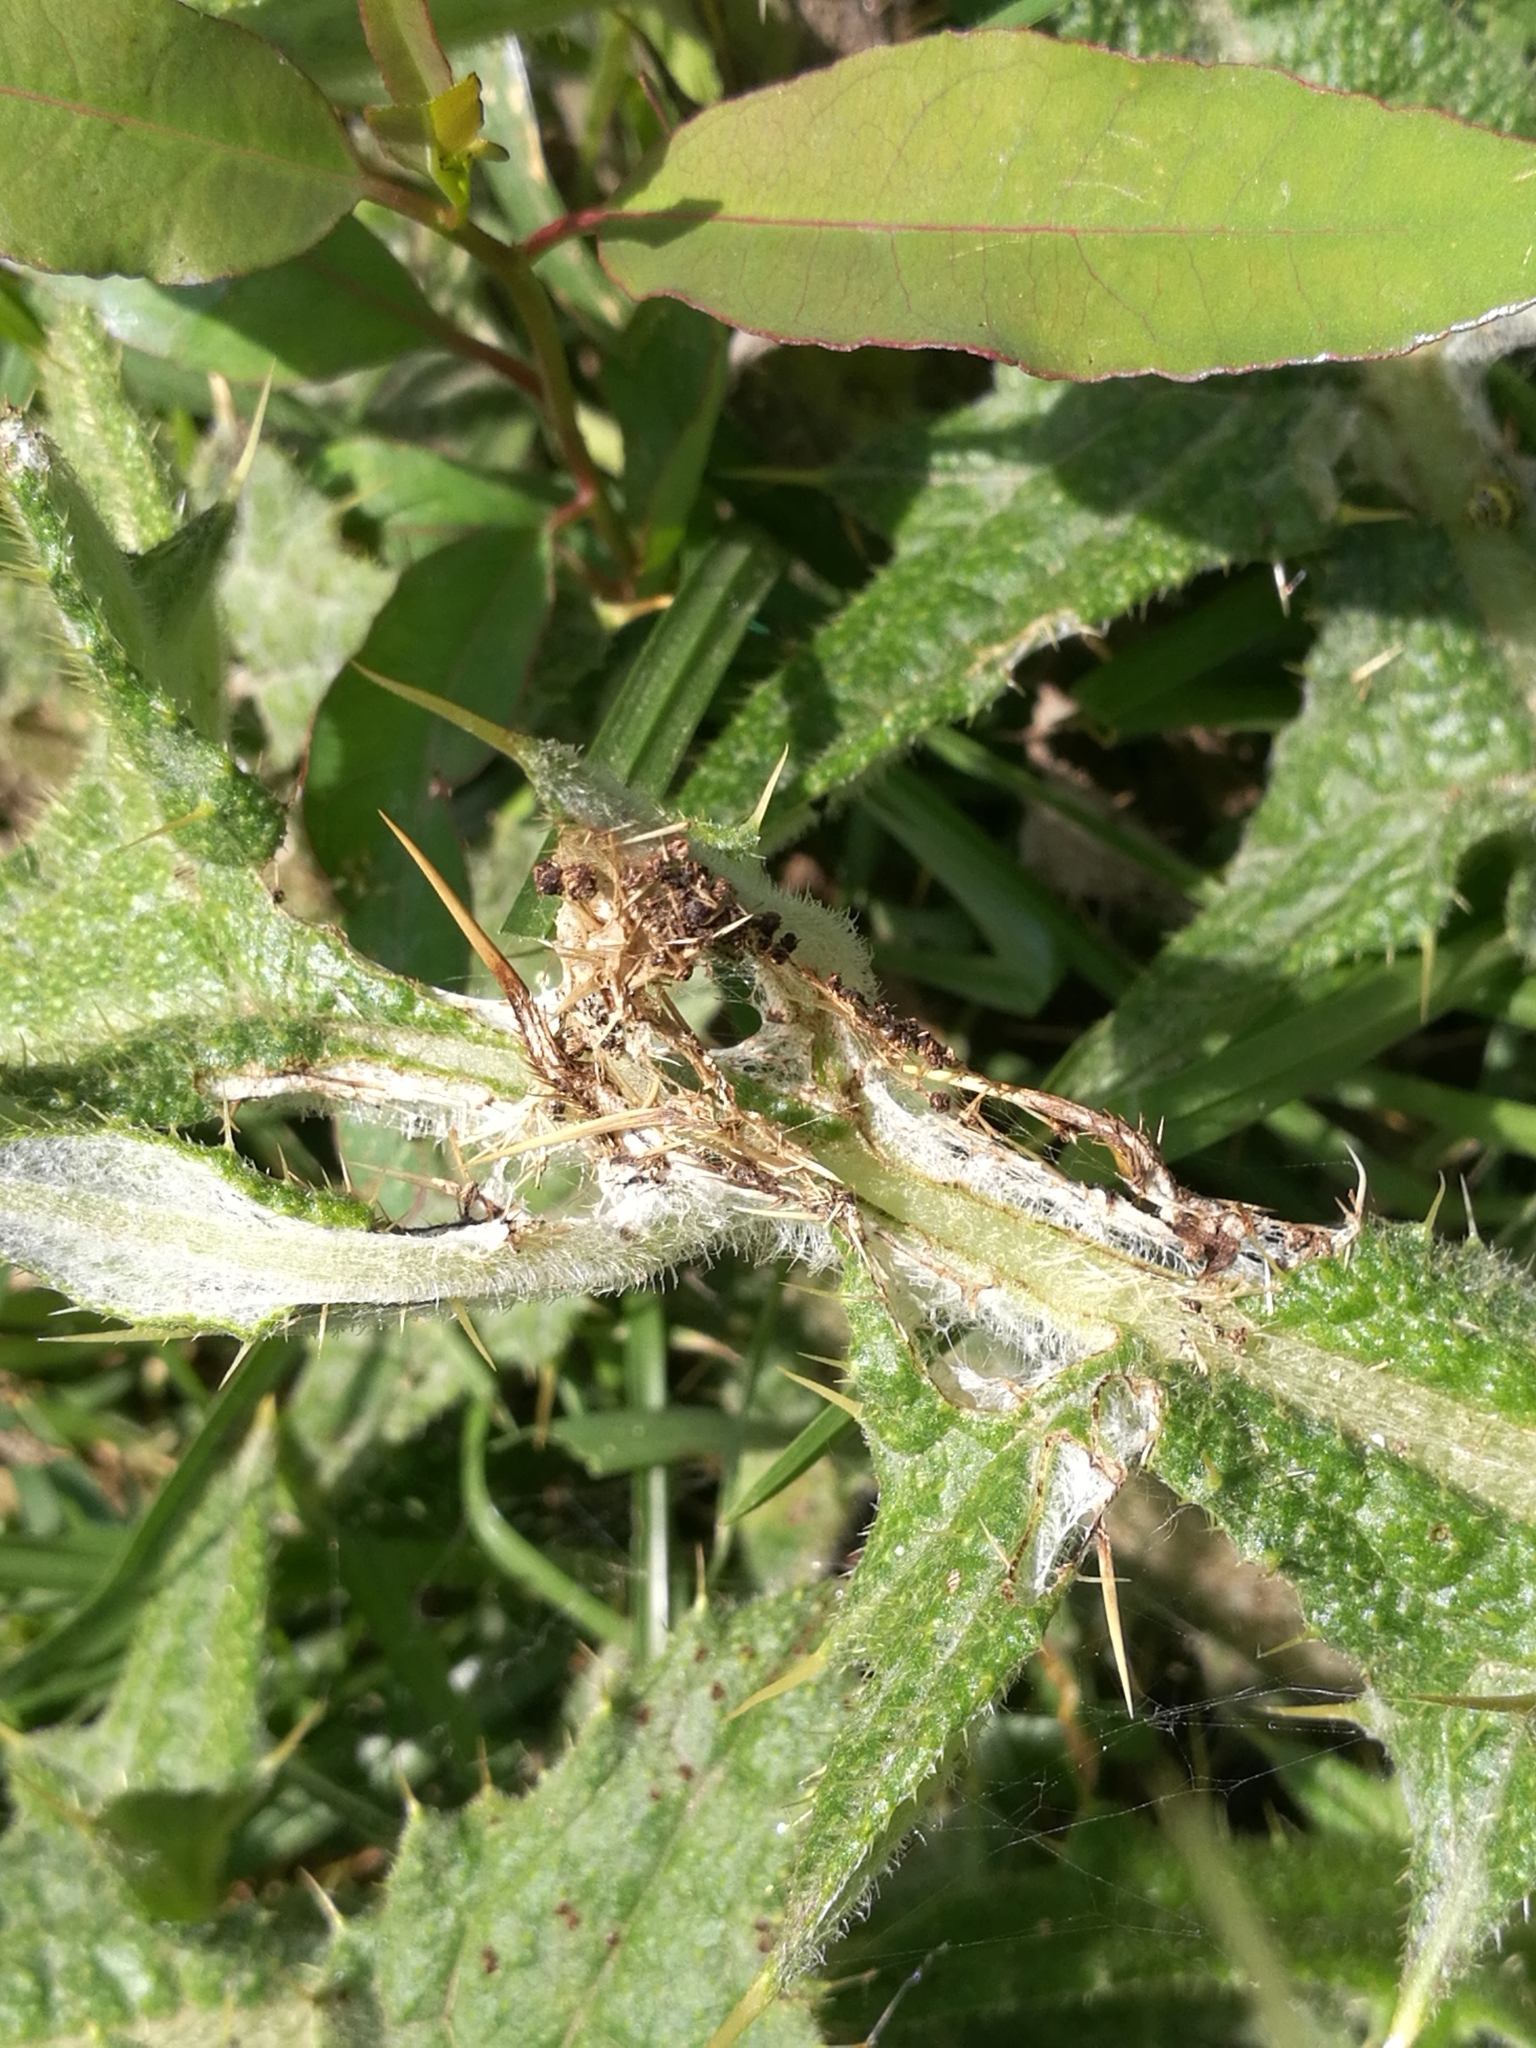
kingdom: Animalia
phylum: Arthropoda
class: Insecta
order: Lepidoptera
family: Nymphalidae
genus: Vanessa
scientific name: Vanessa cardui
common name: Painted lady
